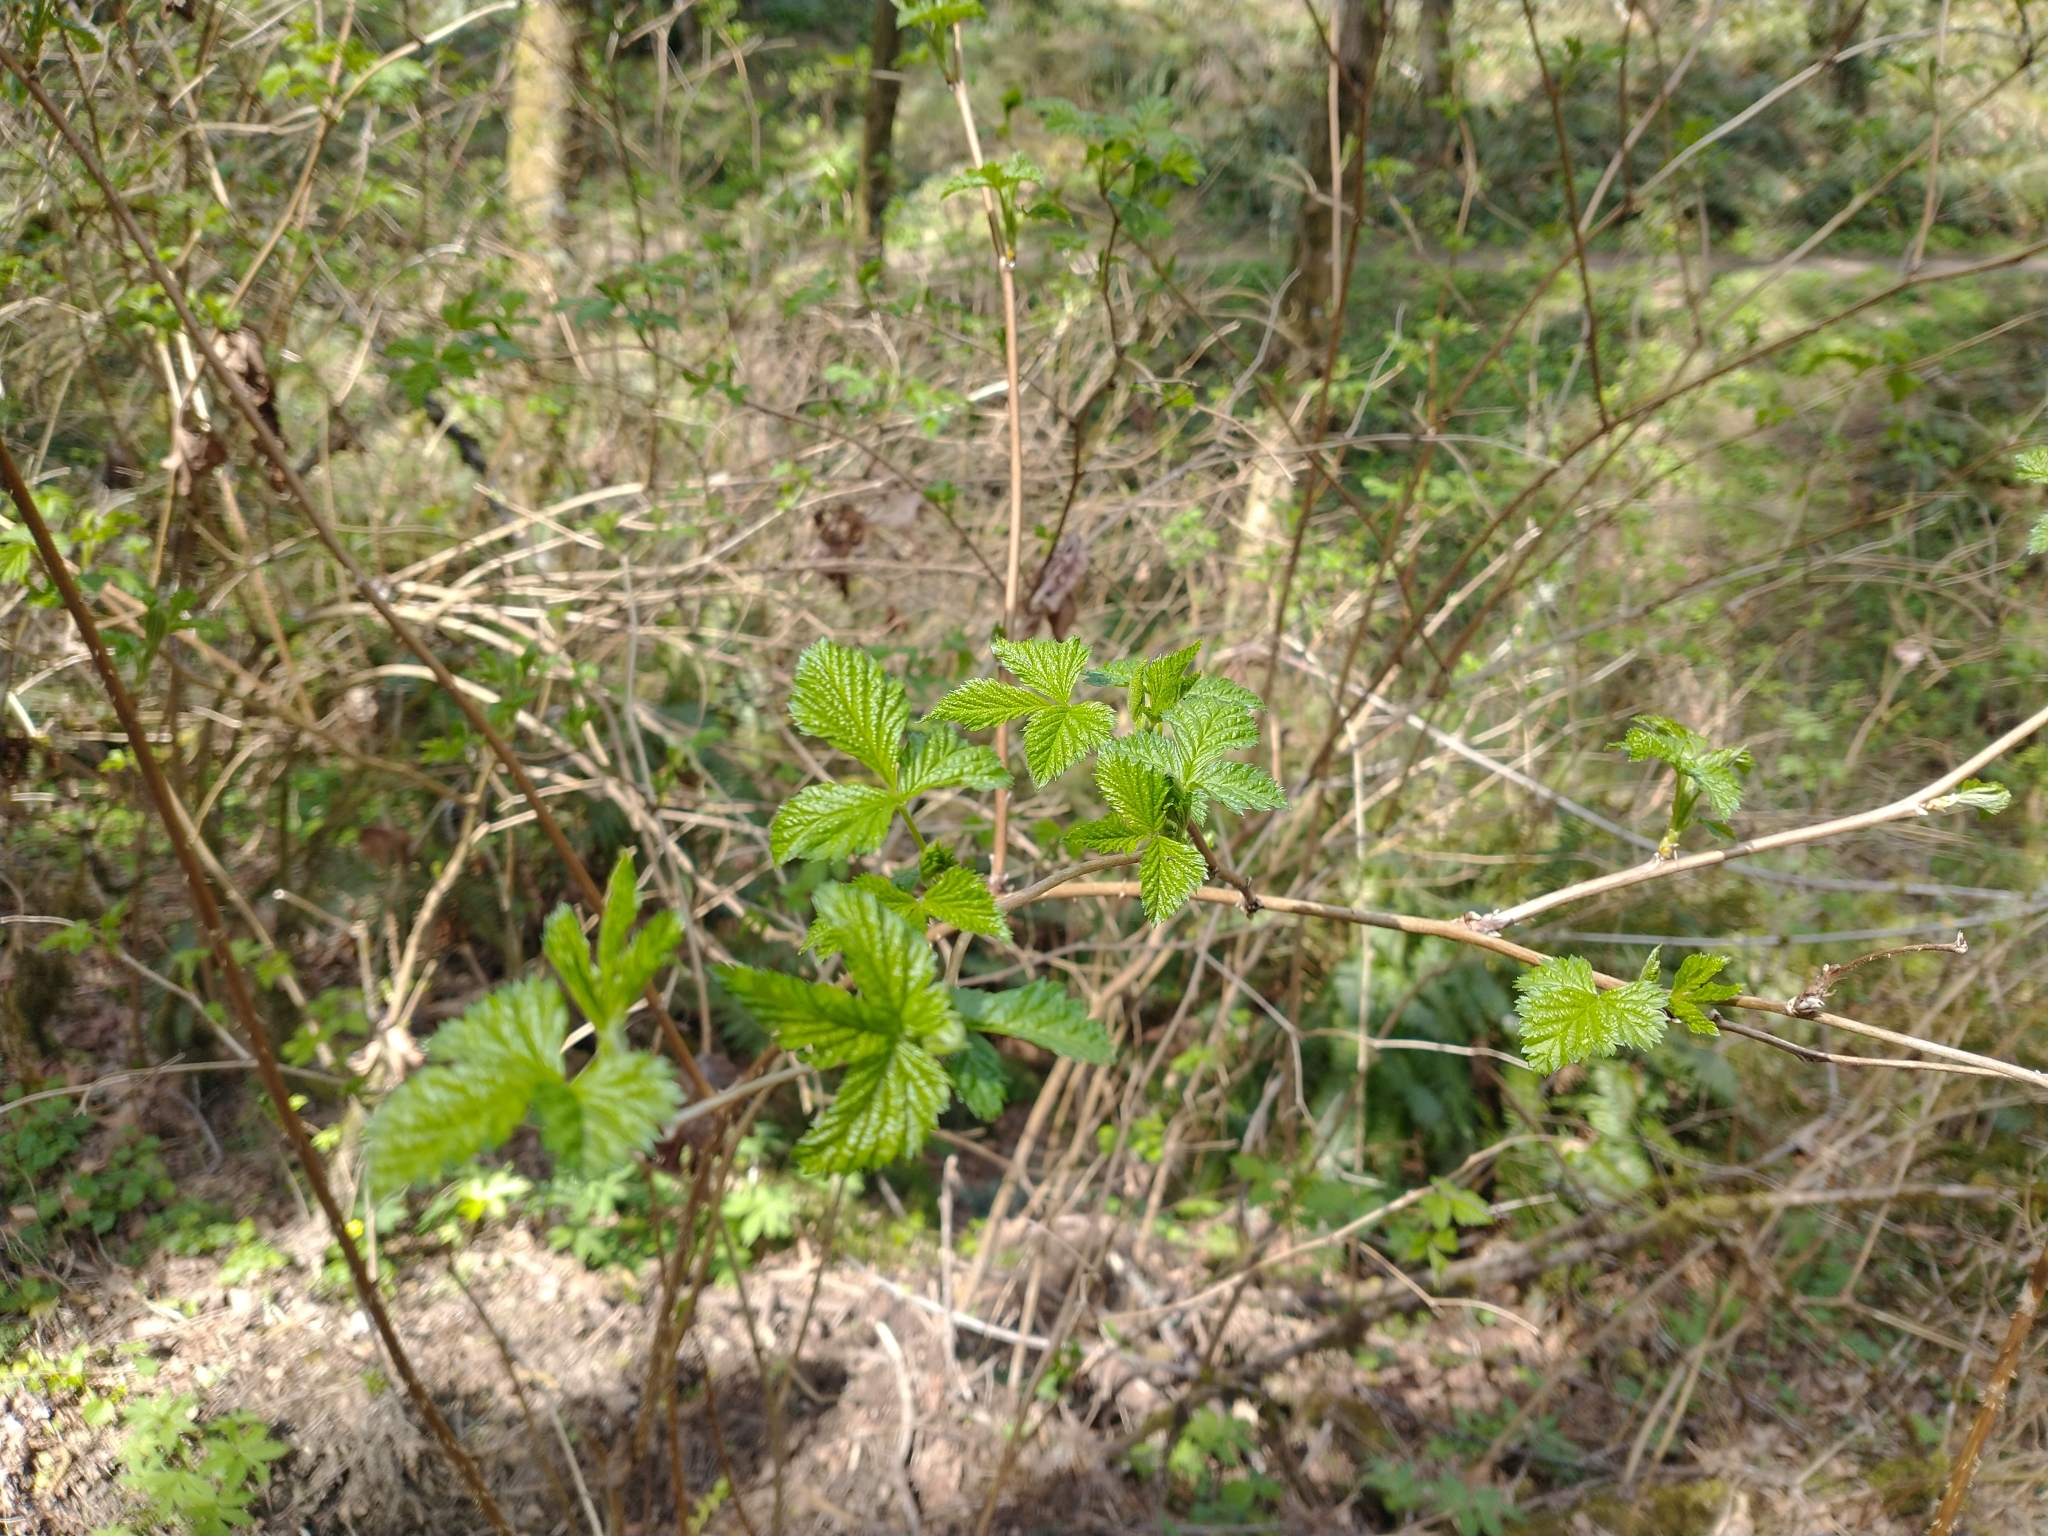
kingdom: Plantae
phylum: Tracheophyta
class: Magnoliopsida
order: Rosales
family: Rosaceae
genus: Rubus
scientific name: Rubus spectabilis
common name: Salmonberry
